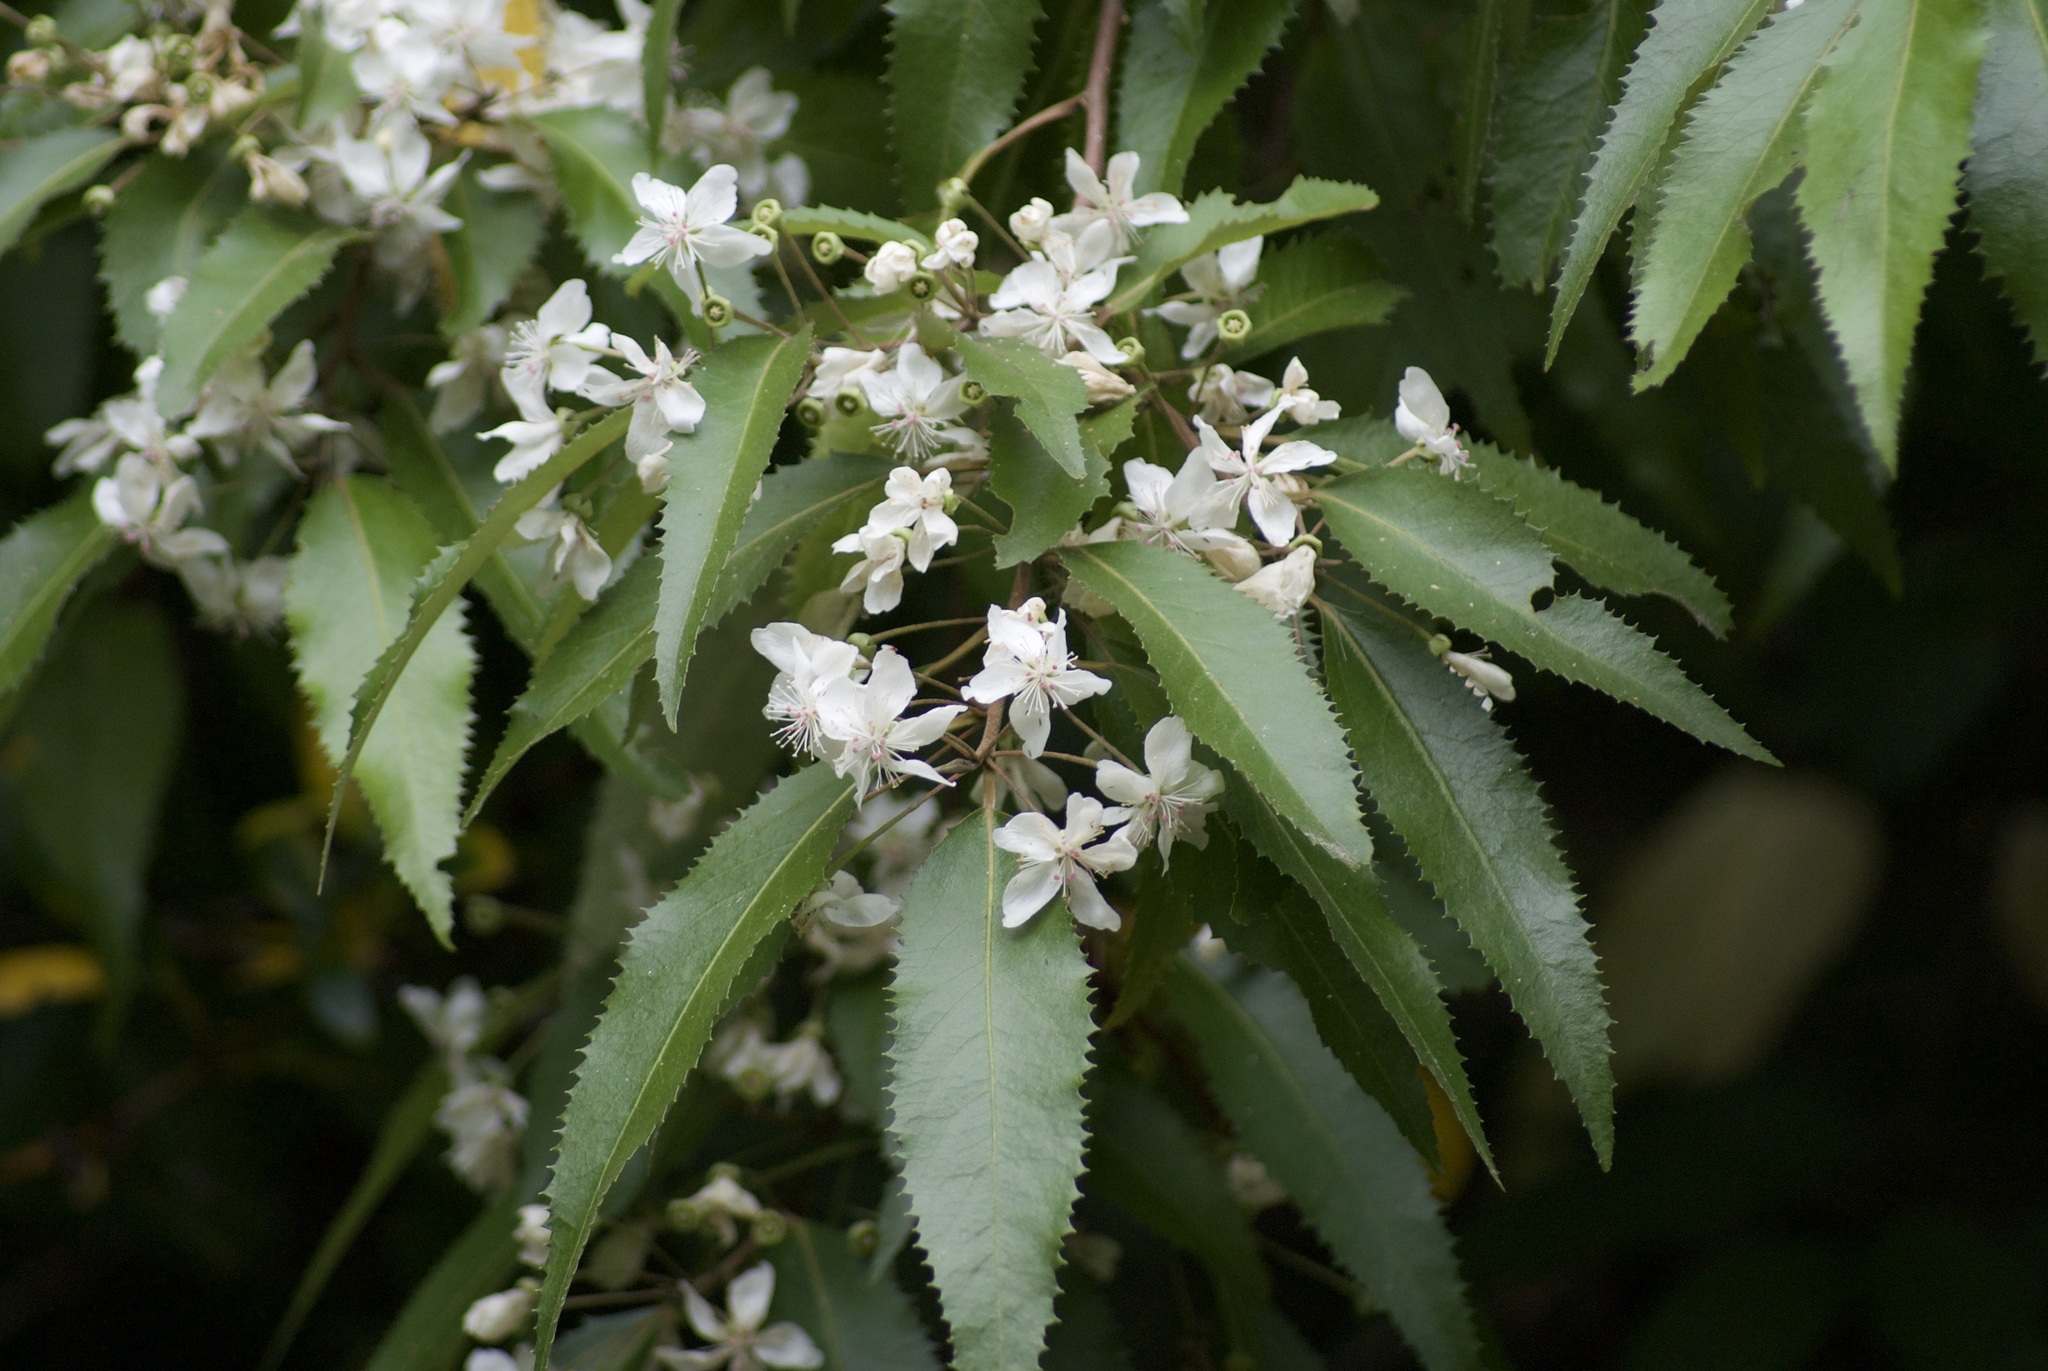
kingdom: Plantae
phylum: Tracheophyta
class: Magnoliopsida
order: Malvales
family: Malvaceae
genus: Hoheria
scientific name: Hoheria sexstylosa
